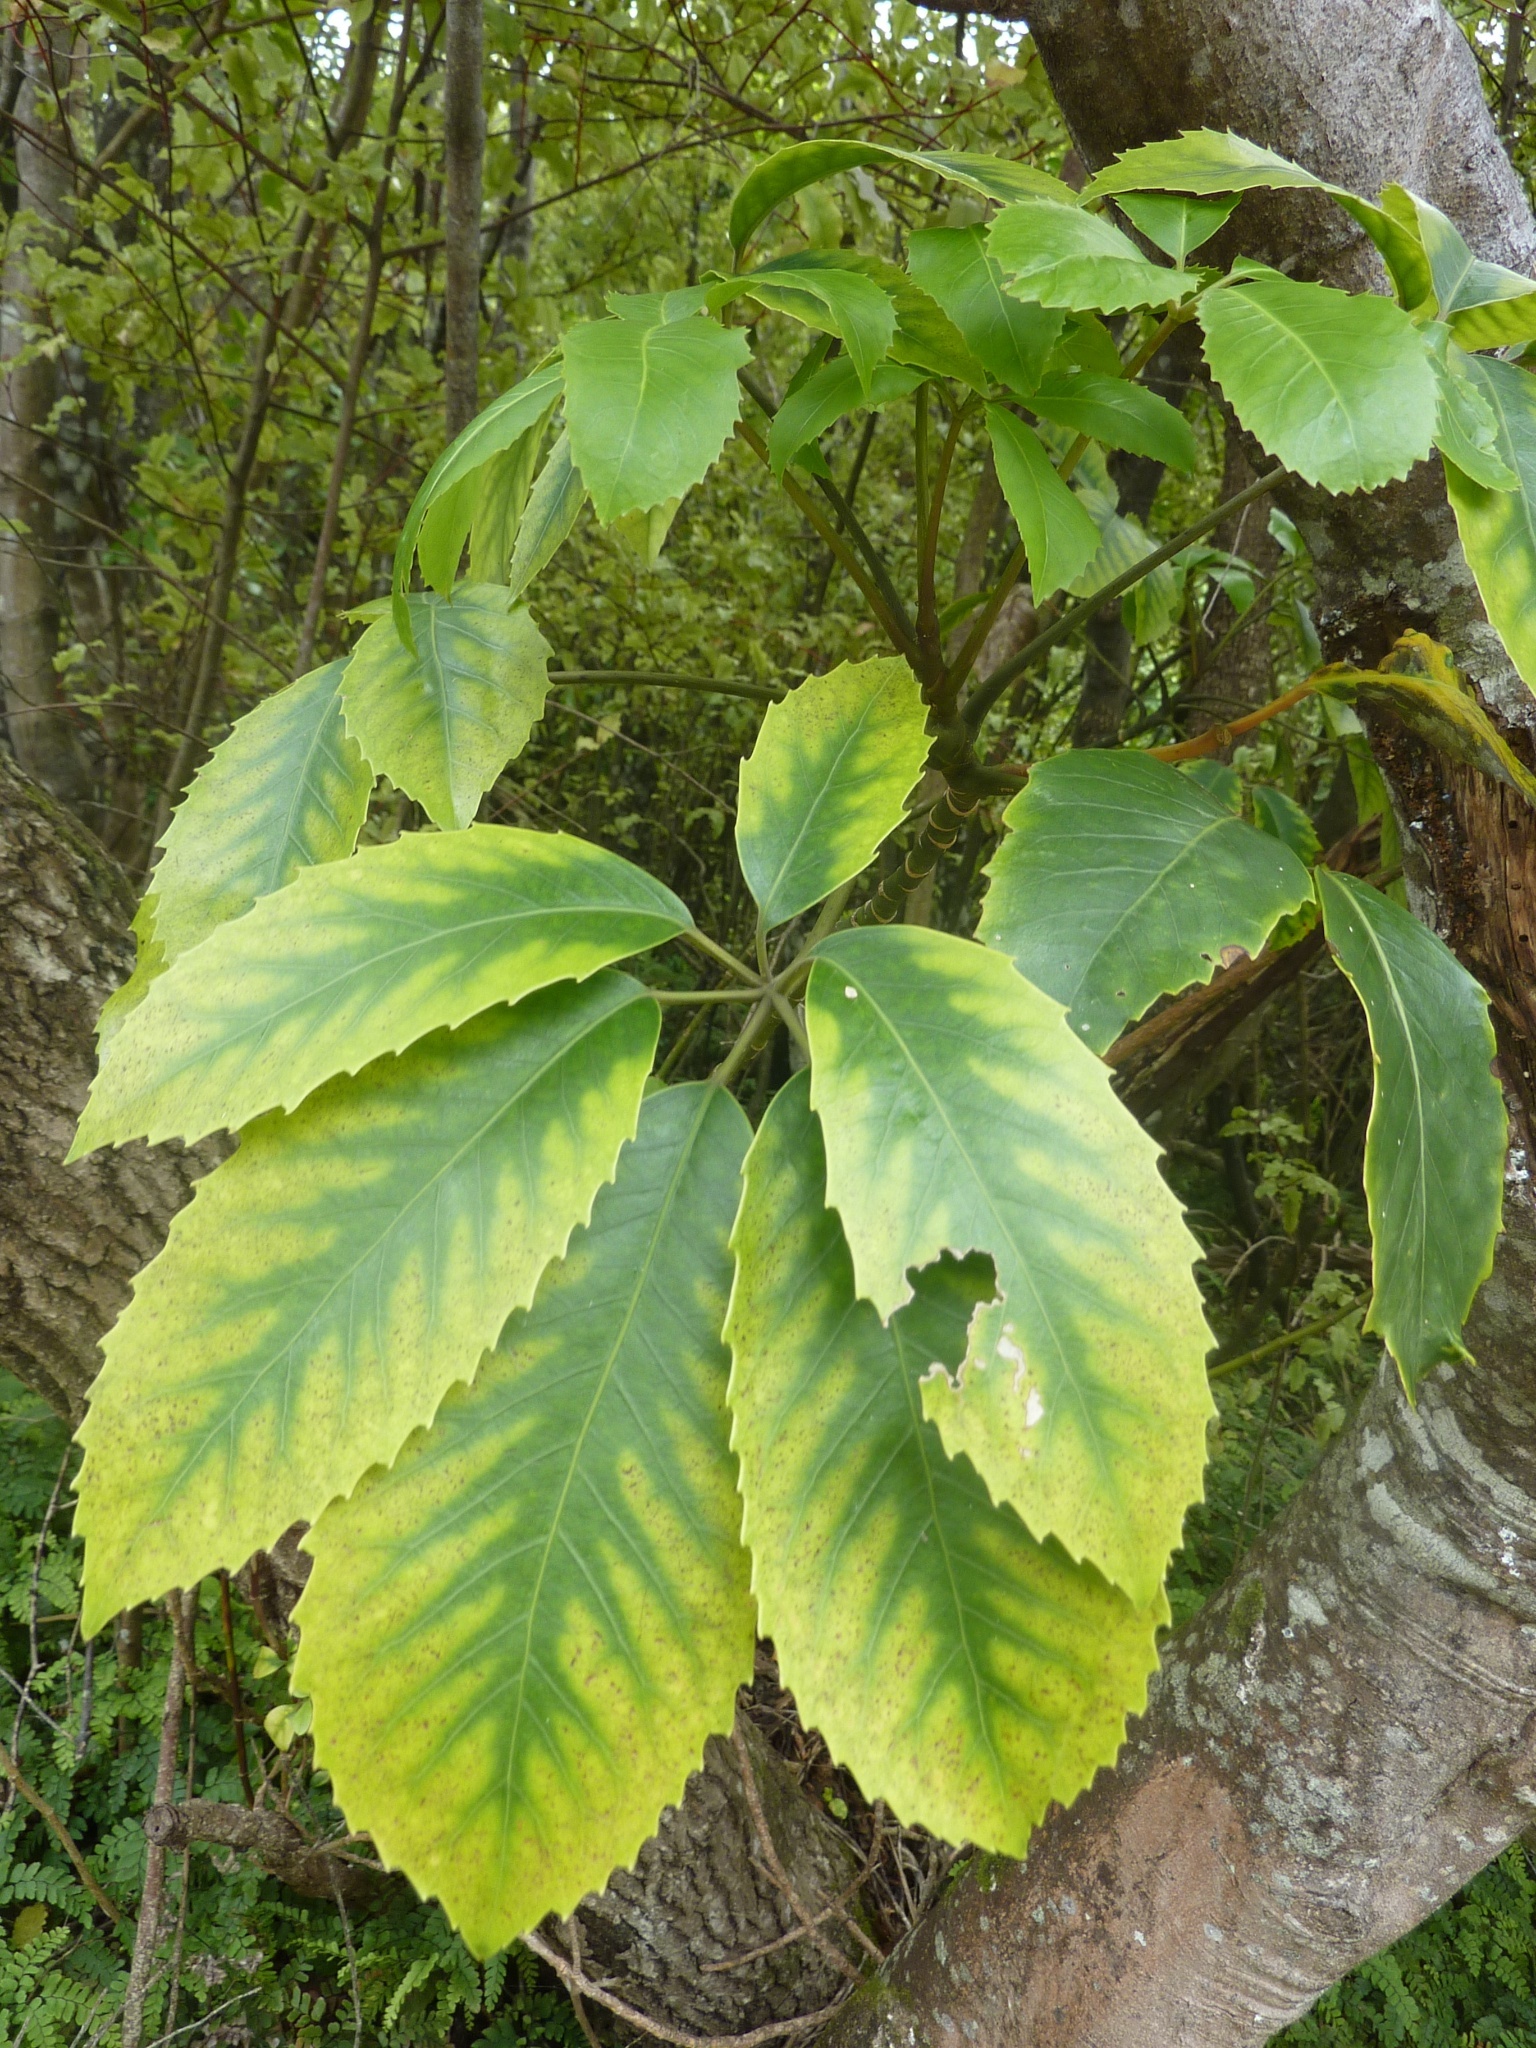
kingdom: Plantae
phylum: Tracheophyta
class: Magnoliopsida
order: Apiales
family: Araliaceae
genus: Neopanax
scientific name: Neopanax arboreus
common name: Five-fingers
